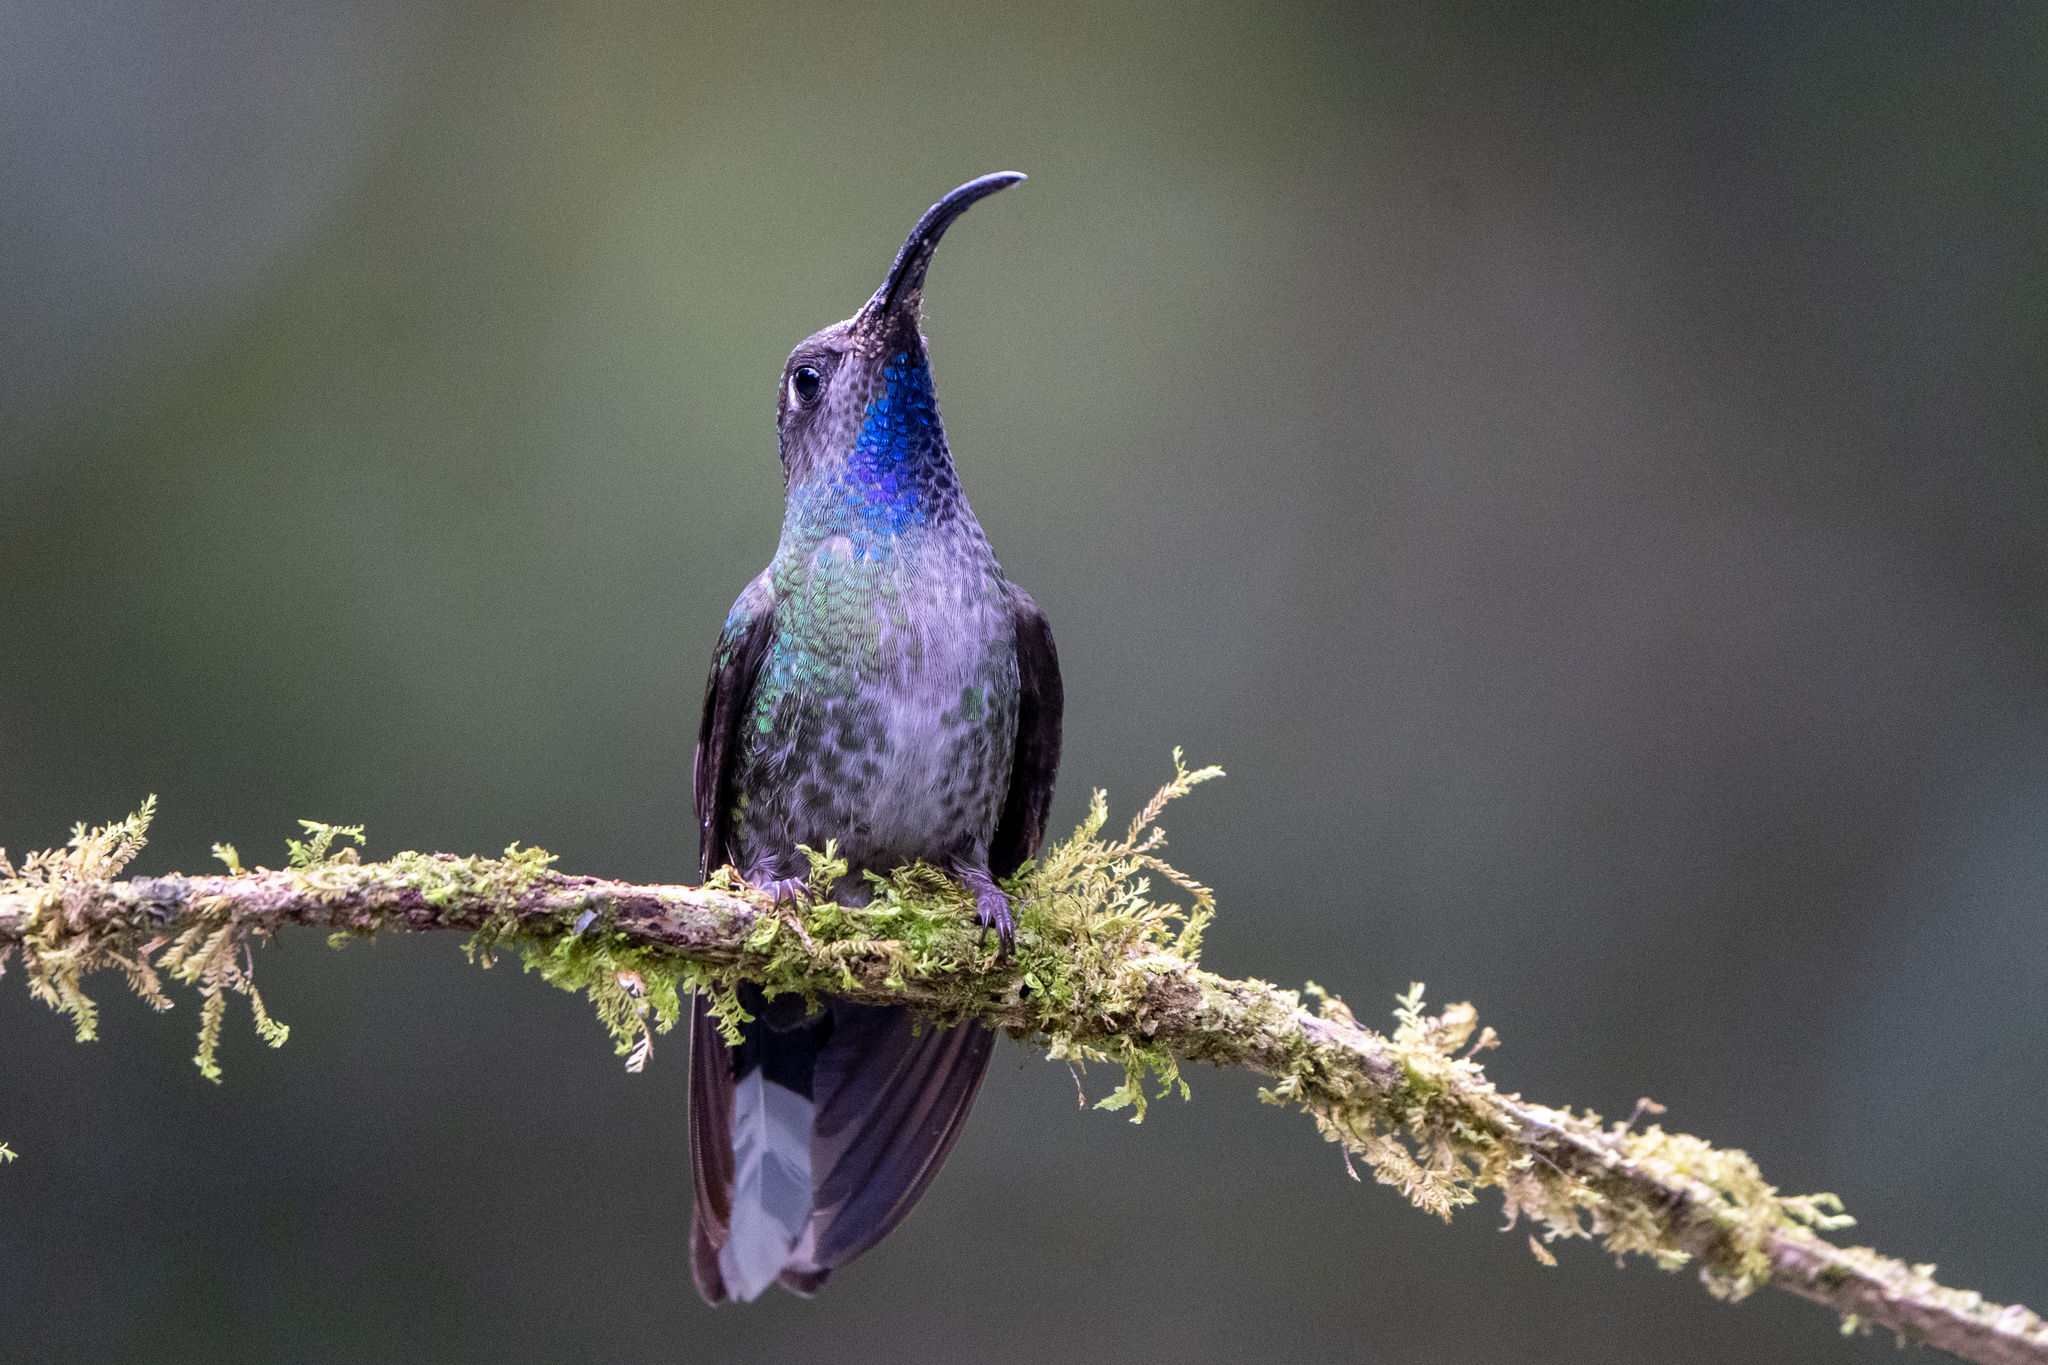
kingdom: Animalia
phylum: Chordata
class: Aves
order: Apodiformes
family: Trochilidae
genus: Campylopterus
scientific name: Campylopterus hemileucurus
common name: Violet sabrewing
